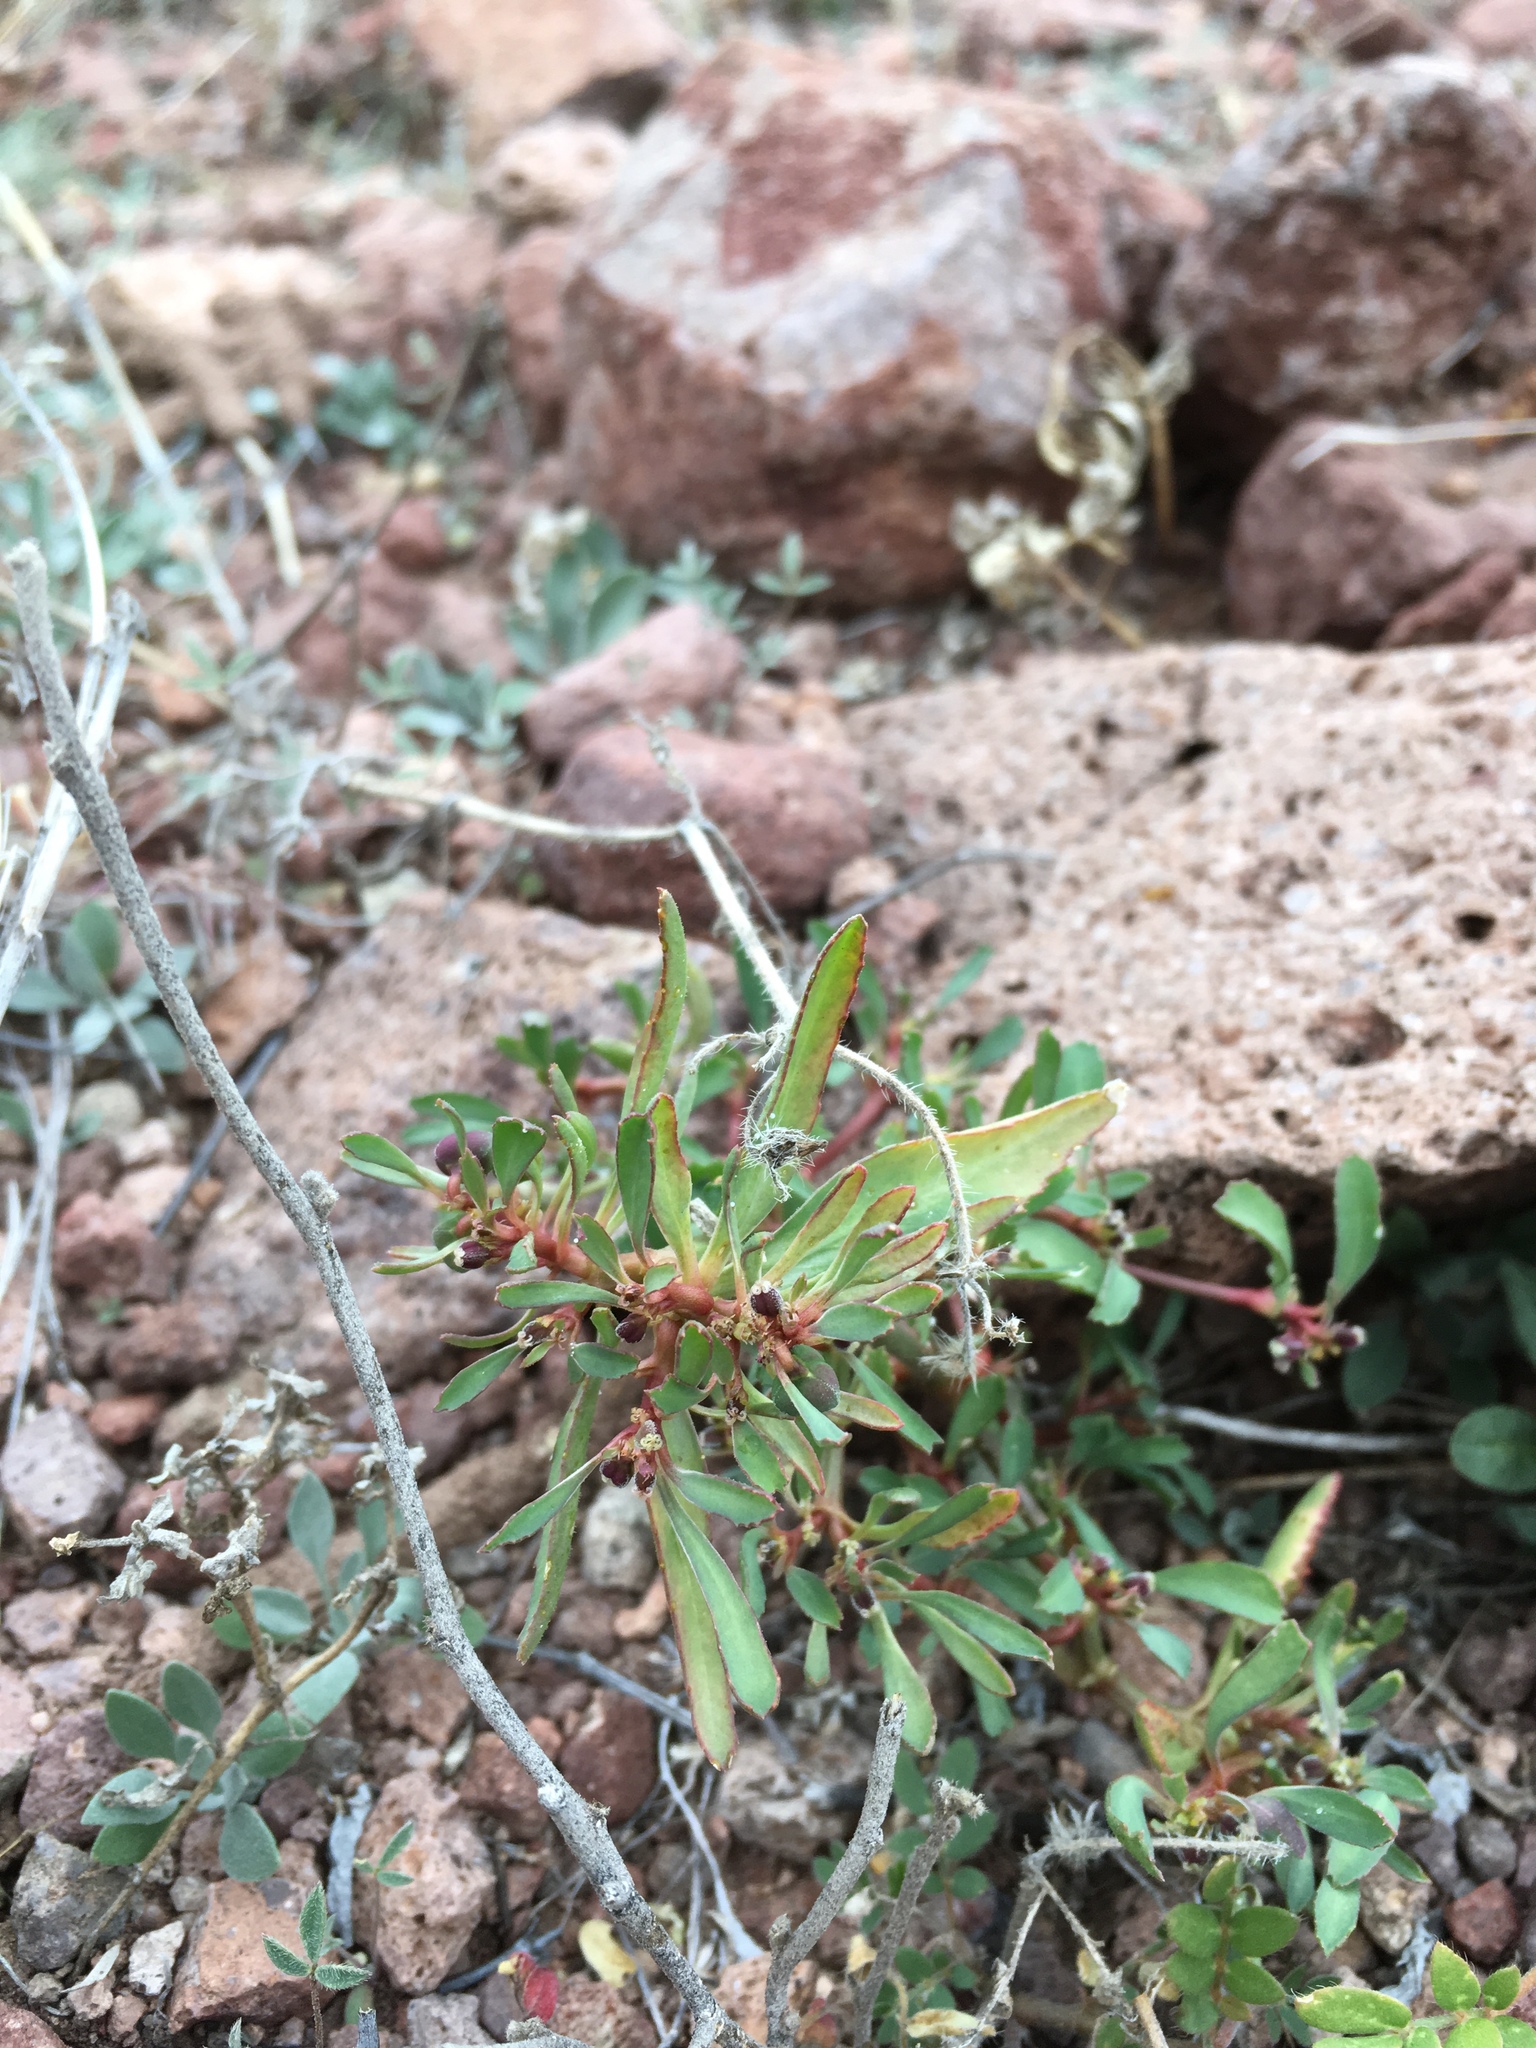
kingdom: Plantae
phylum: Tracheophyta
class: Magnoliopsida
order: Malpighiales
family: Euphorbiaceae
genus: Euphorbia
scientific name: Euphorbia exstipulata
